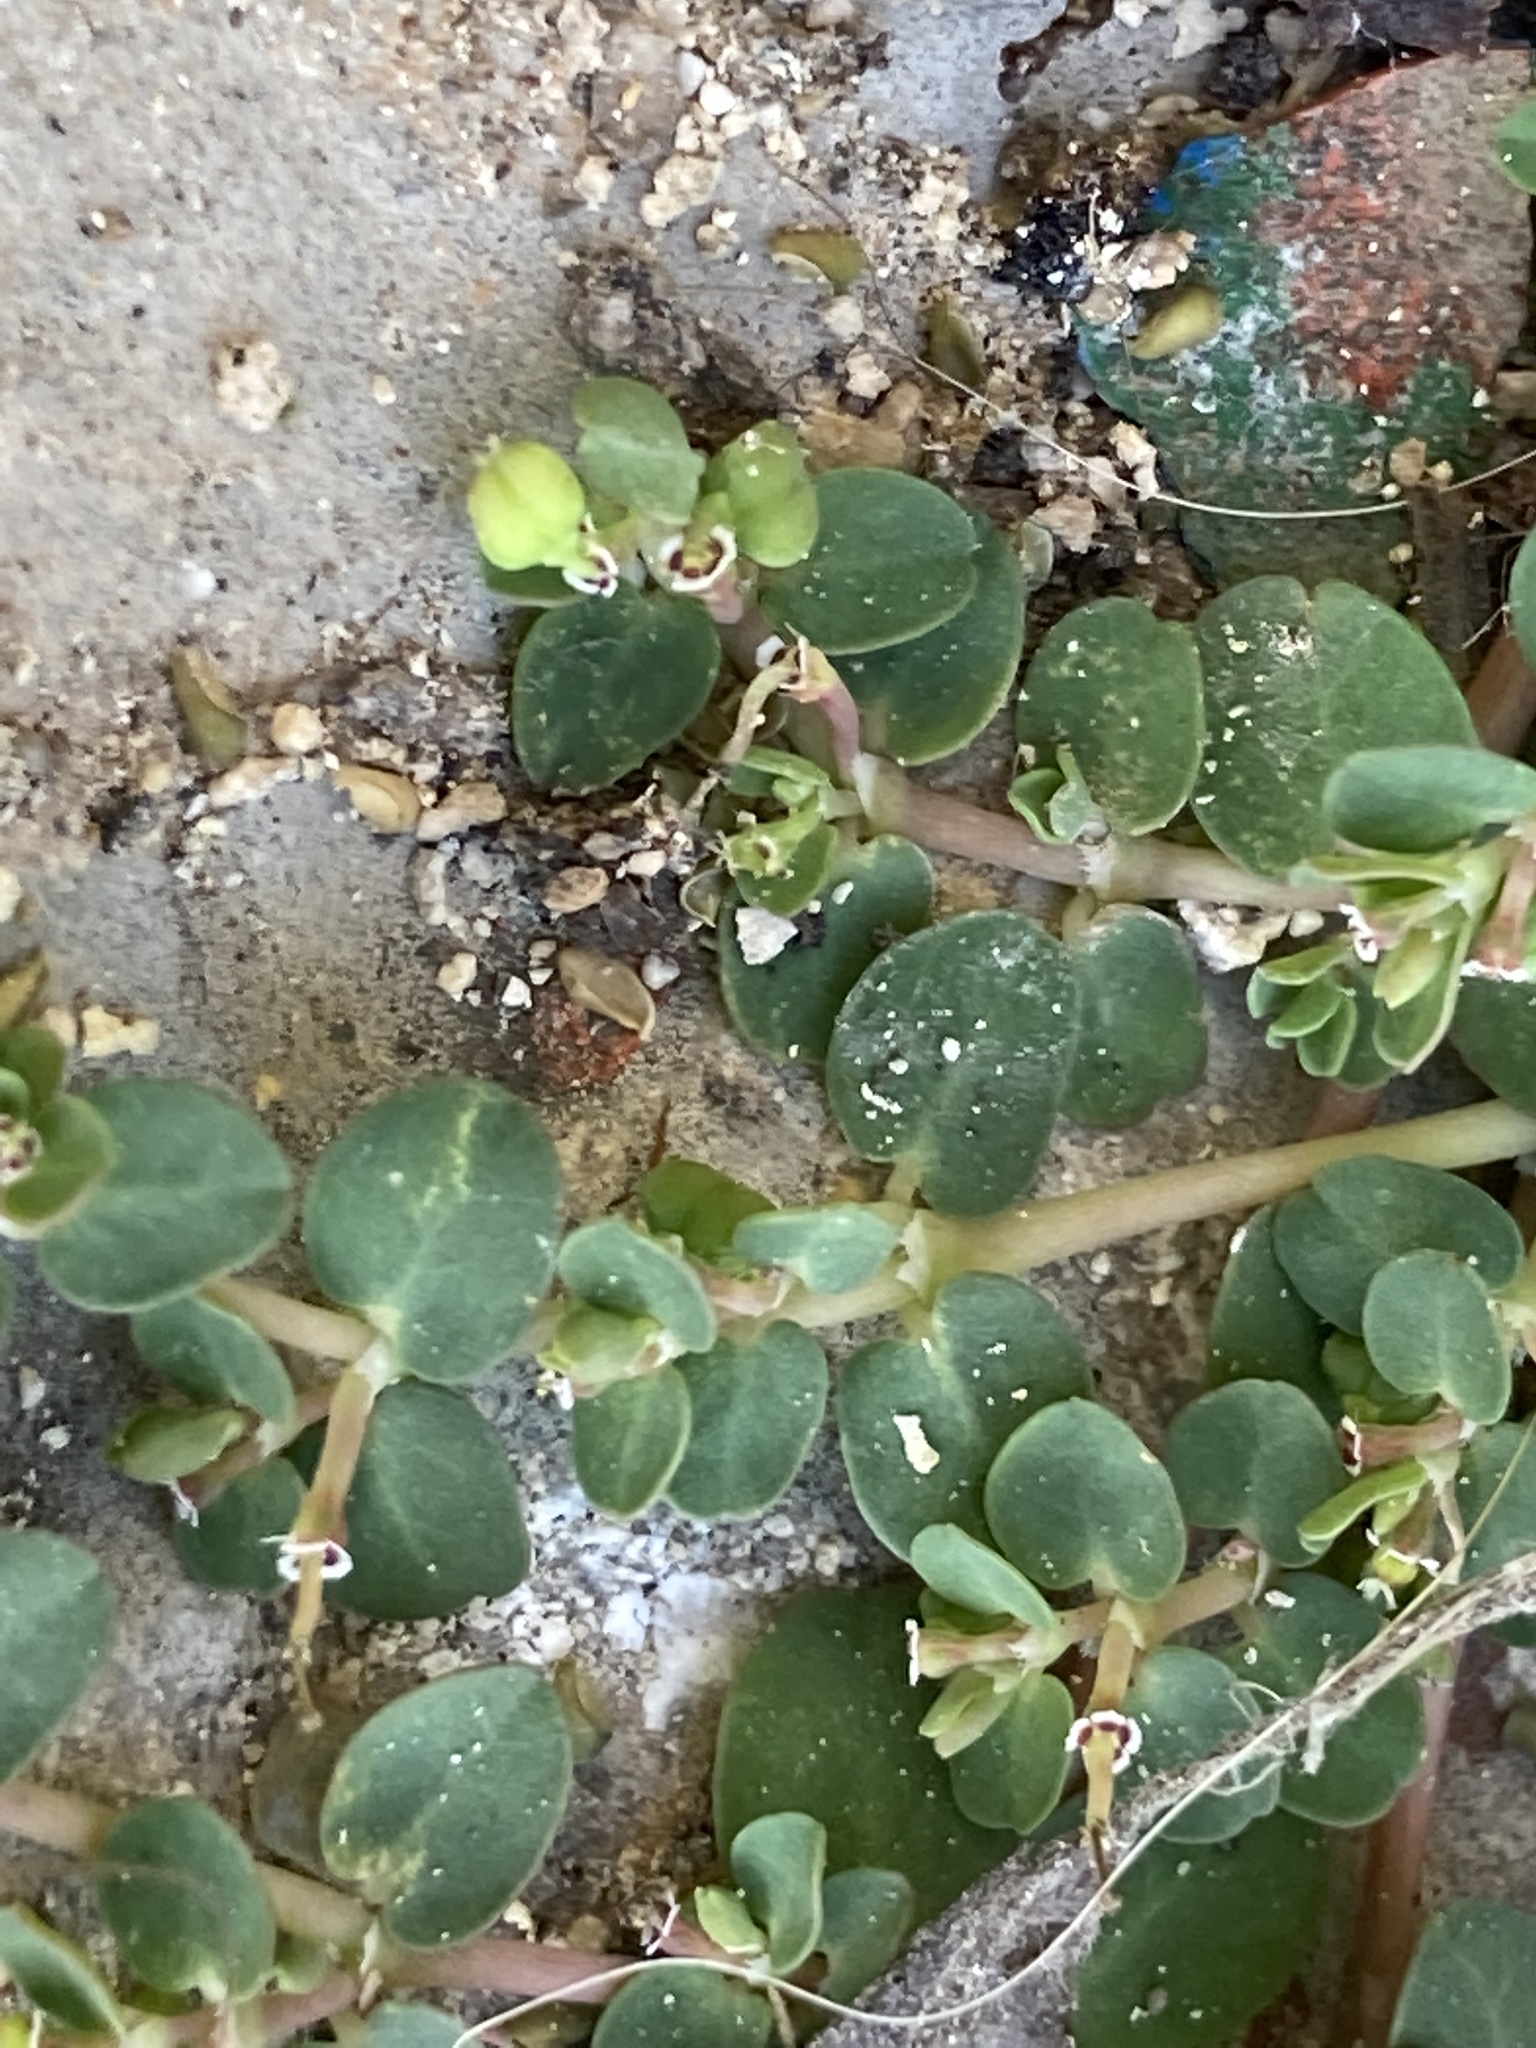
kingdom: Plantae
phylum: Tracheophyta
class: Magnoliopsida
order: Malpighiales
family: Euphorbiaceae
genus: Euphorbia
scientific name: Euphorbia serpens
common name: Matted sandmat
